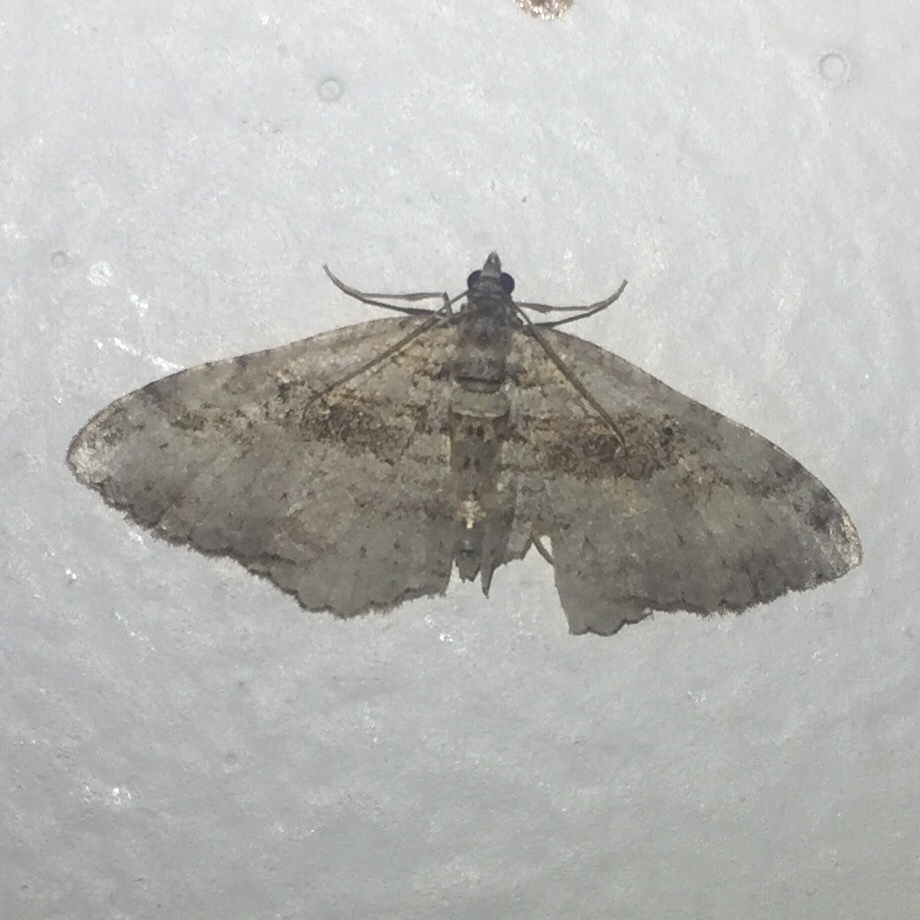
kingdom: Animalia
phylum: Arthropoda
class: Insecta
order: Lepidoptera
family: Geometridae
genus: Costaconvexa
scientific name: Costaconvexa centrostrigaria
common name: Bent-line carpet
